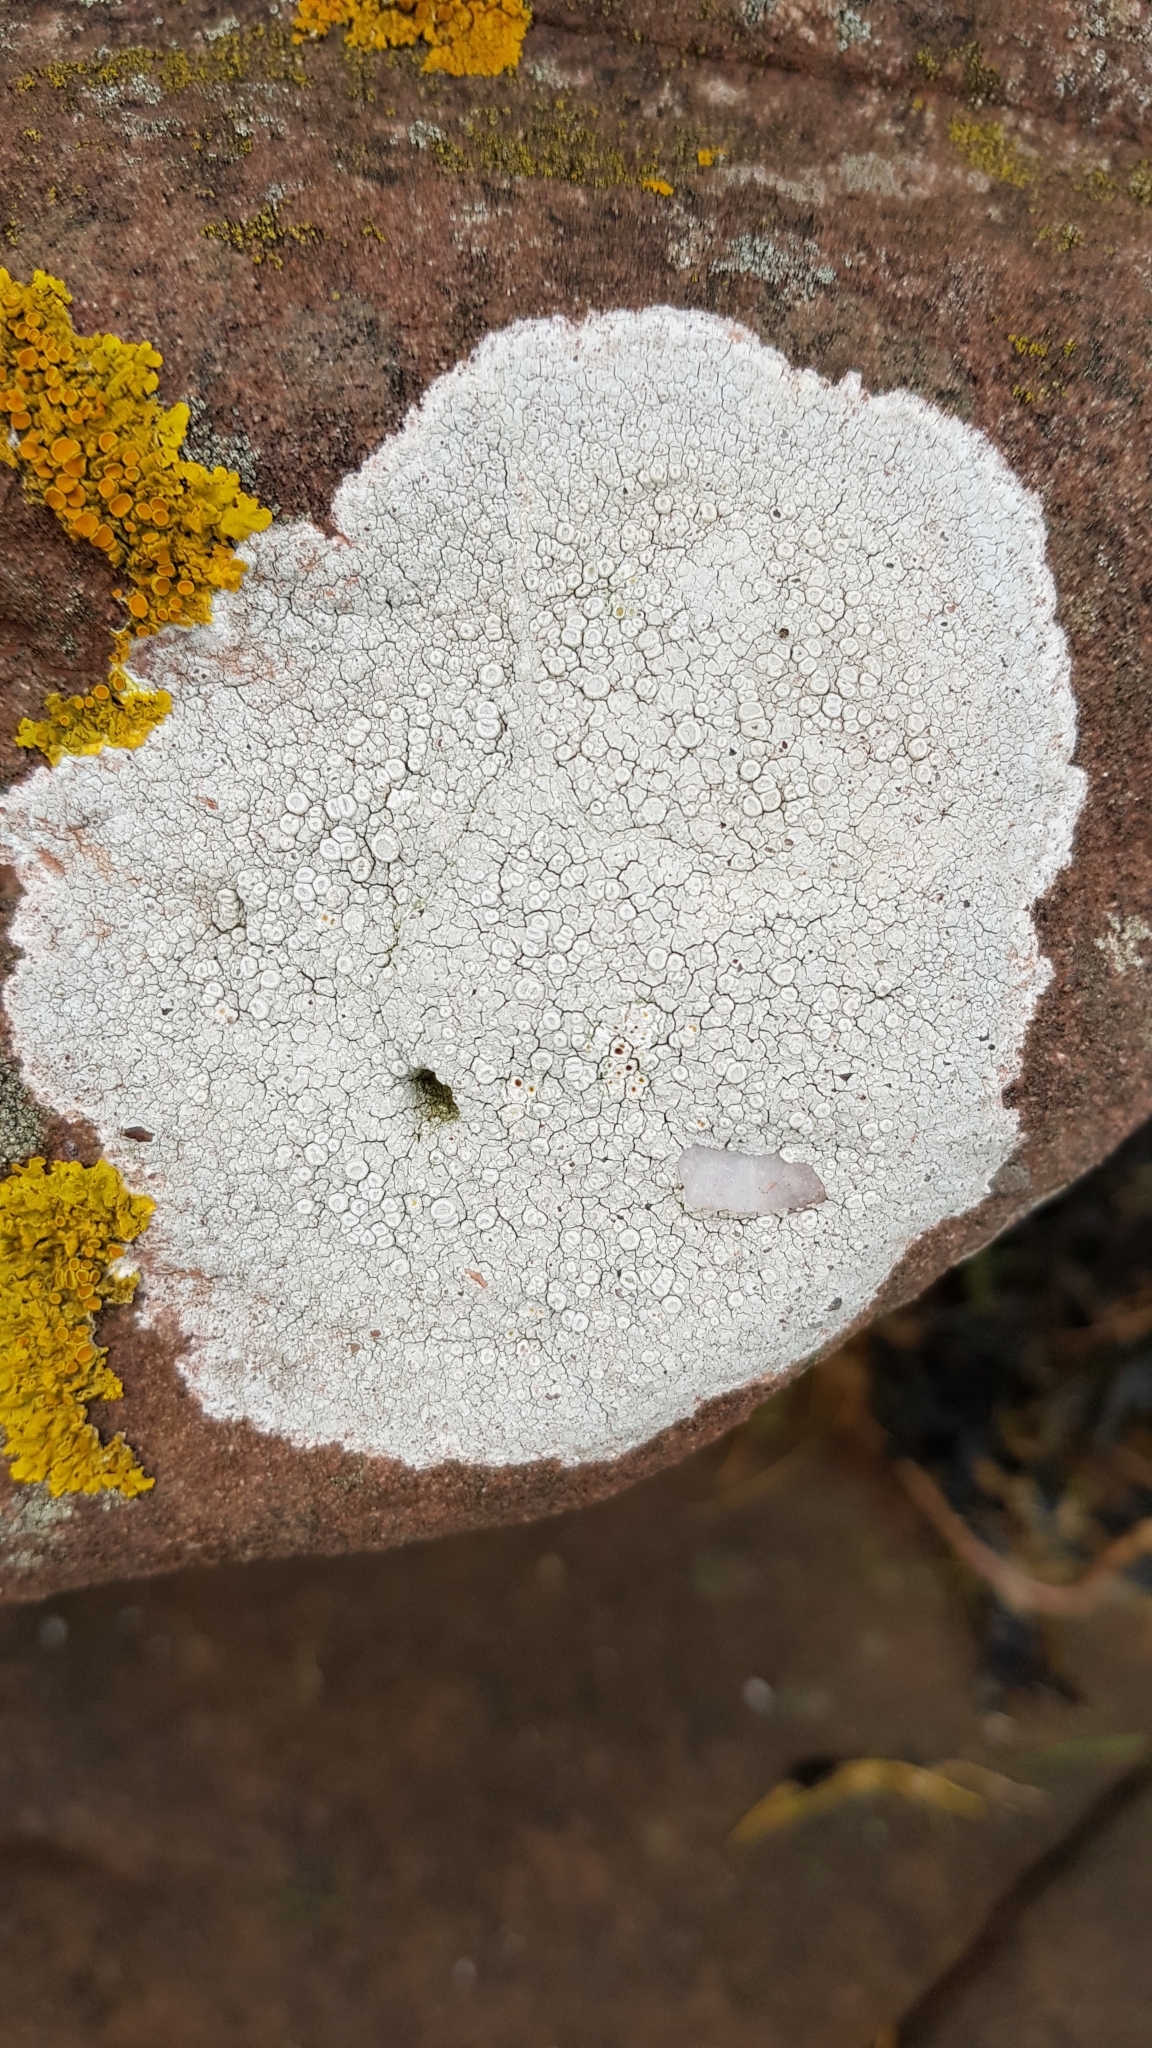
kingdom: Fungi
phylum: Ascomycota
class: Lecanoromycetes
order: Pertusariales
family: Ochrolechiaceae
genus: Ochrolechia
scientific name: Ochrolechia parella
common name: Crab's eye lichen
